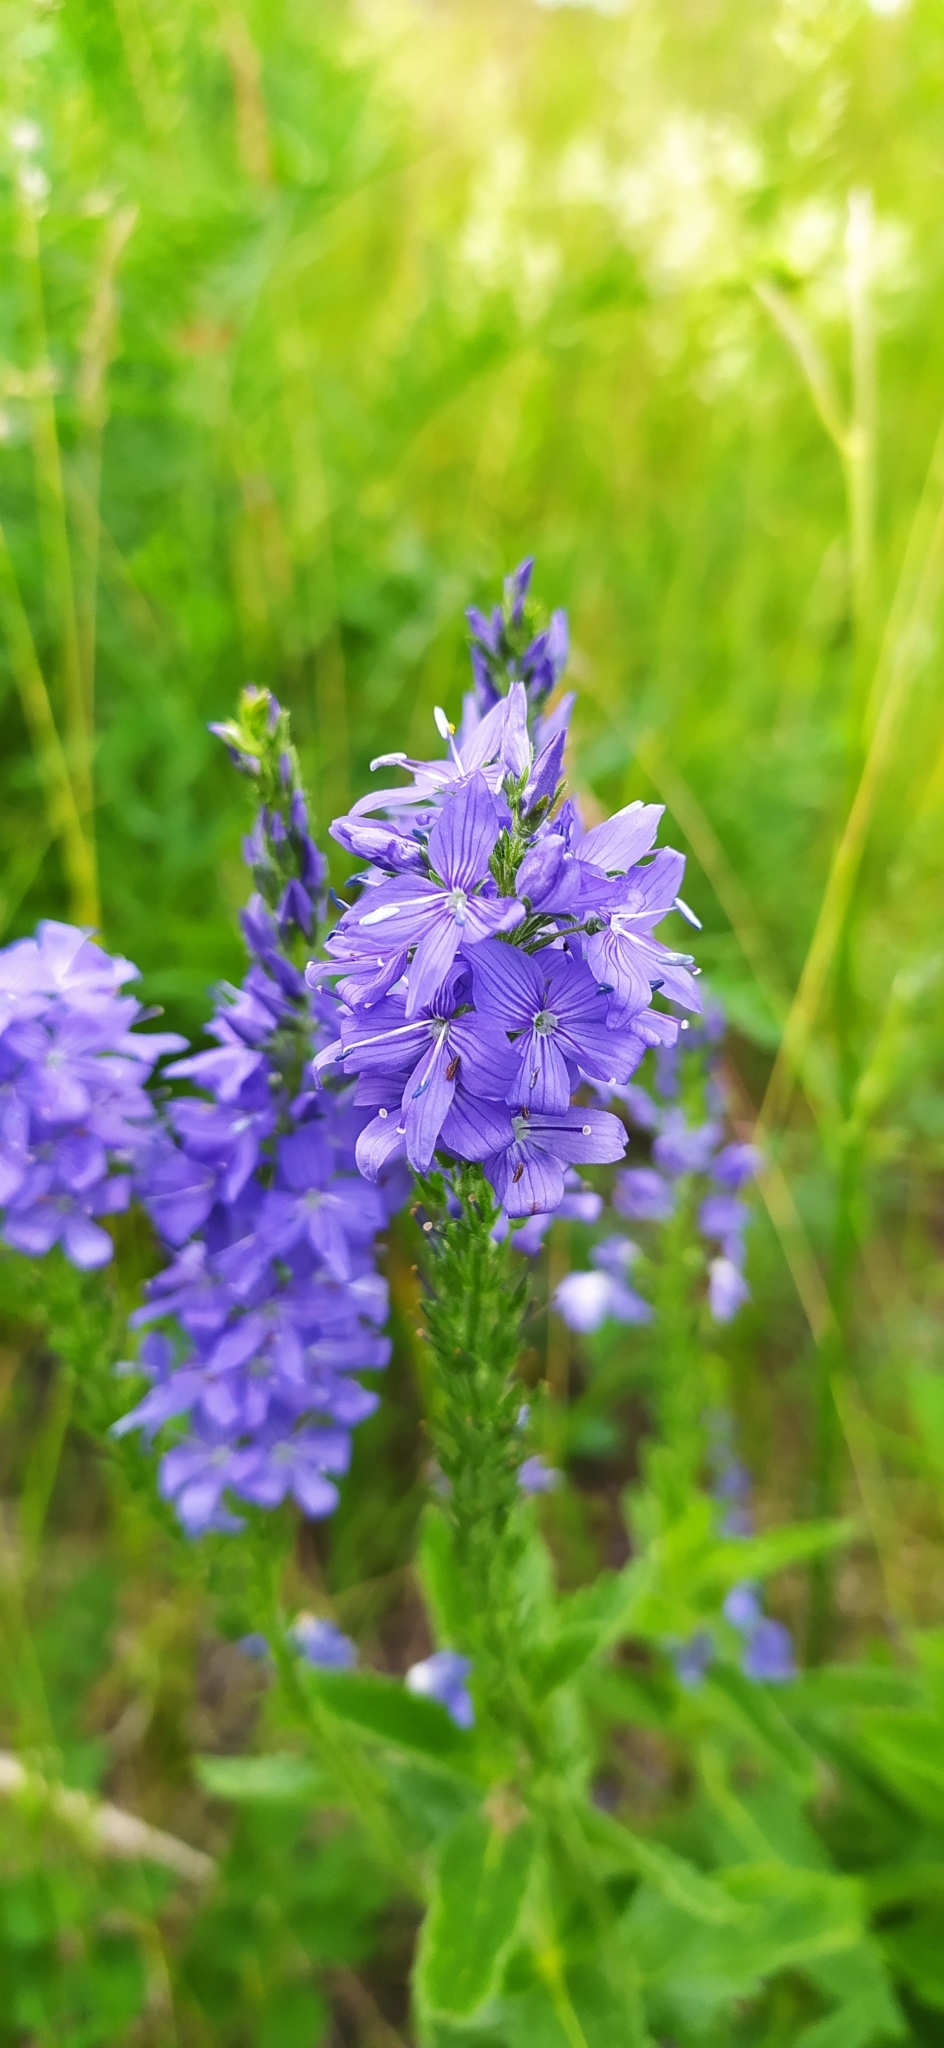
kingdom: Plantae
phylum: Tracheophyta
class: Magnoliopsida
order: Lamiales
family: Plantaginaceae
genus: Veronica
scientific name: Veronica teucrium
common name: Large speedwell
